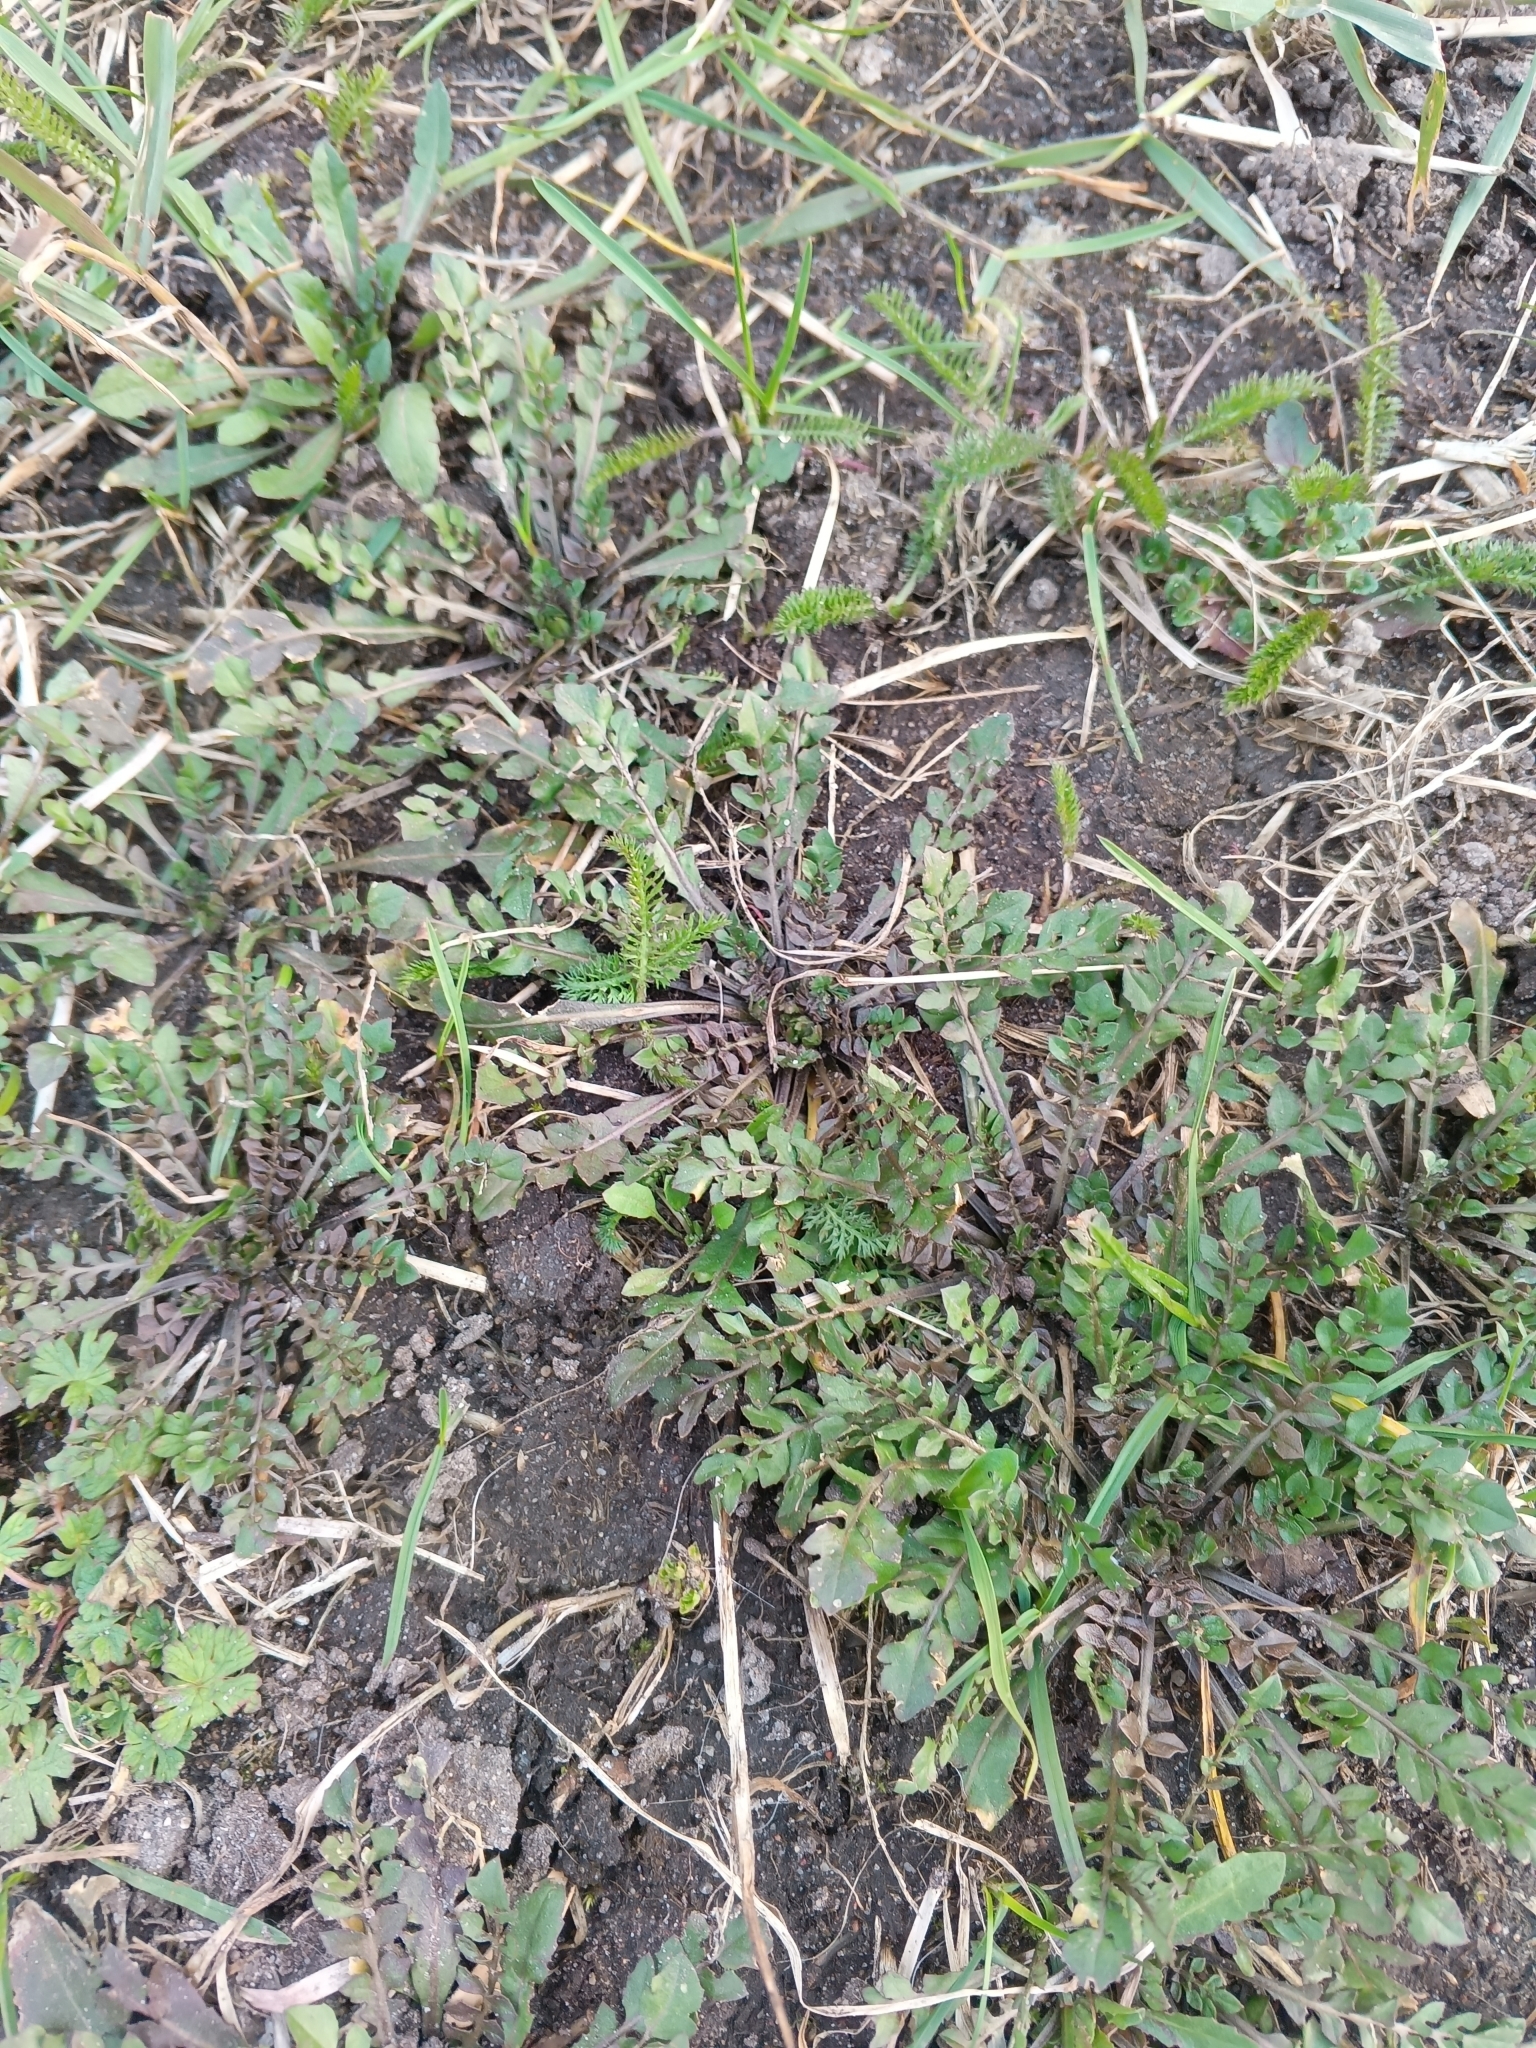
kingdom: Plantae
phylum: Tracheophyta
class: Magnoliopsida
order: Brassicales
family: Brassicaceae
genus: Capsella
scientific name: Capsella bursa-pastoris
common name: Shepherd's purse
